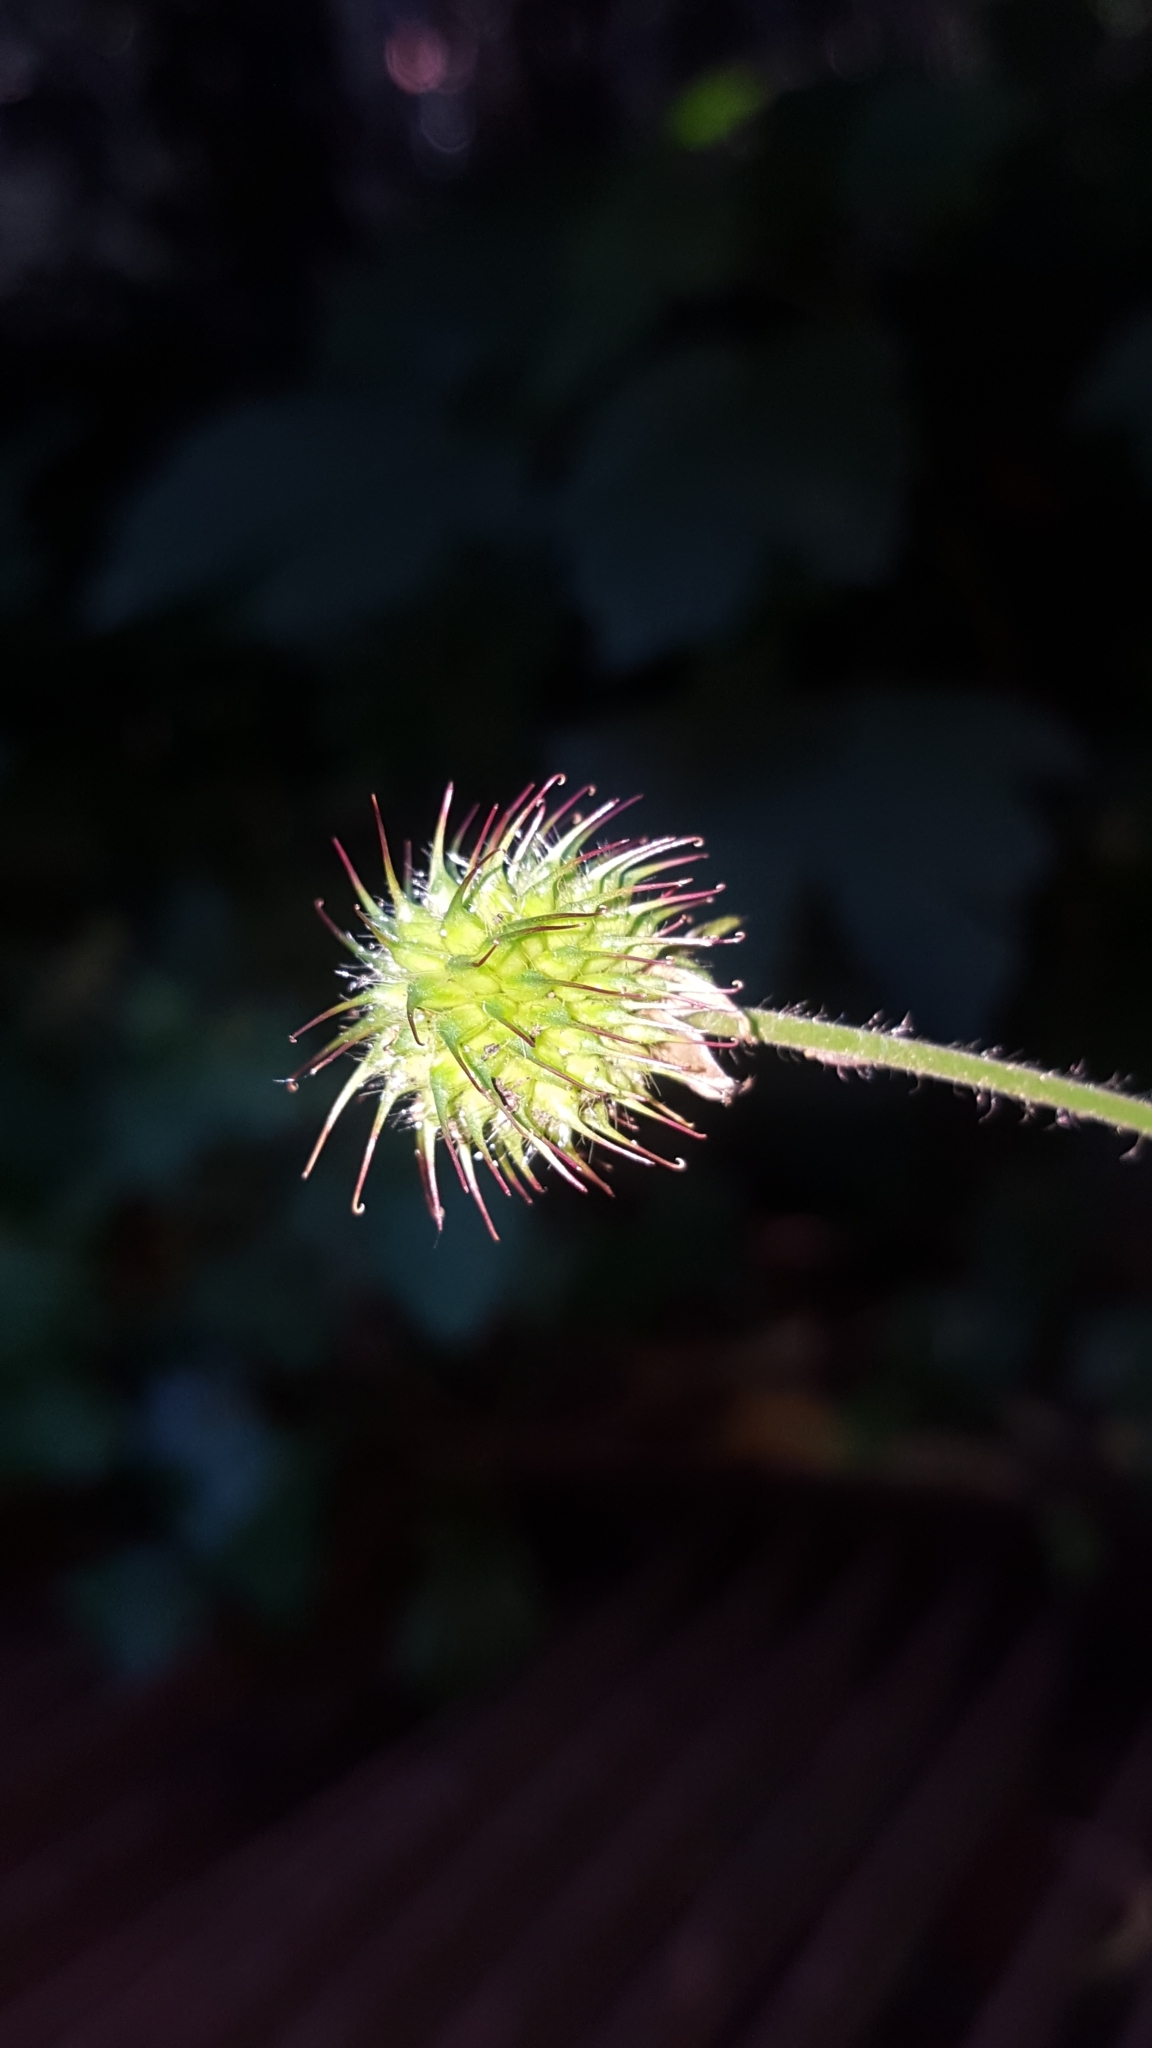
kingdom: Plantae
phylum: Tracheophyta
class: Magnoliopsida
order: Rosales
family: Rosaceae
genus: Geum
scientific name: Geum urbanum
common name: Wood avens
